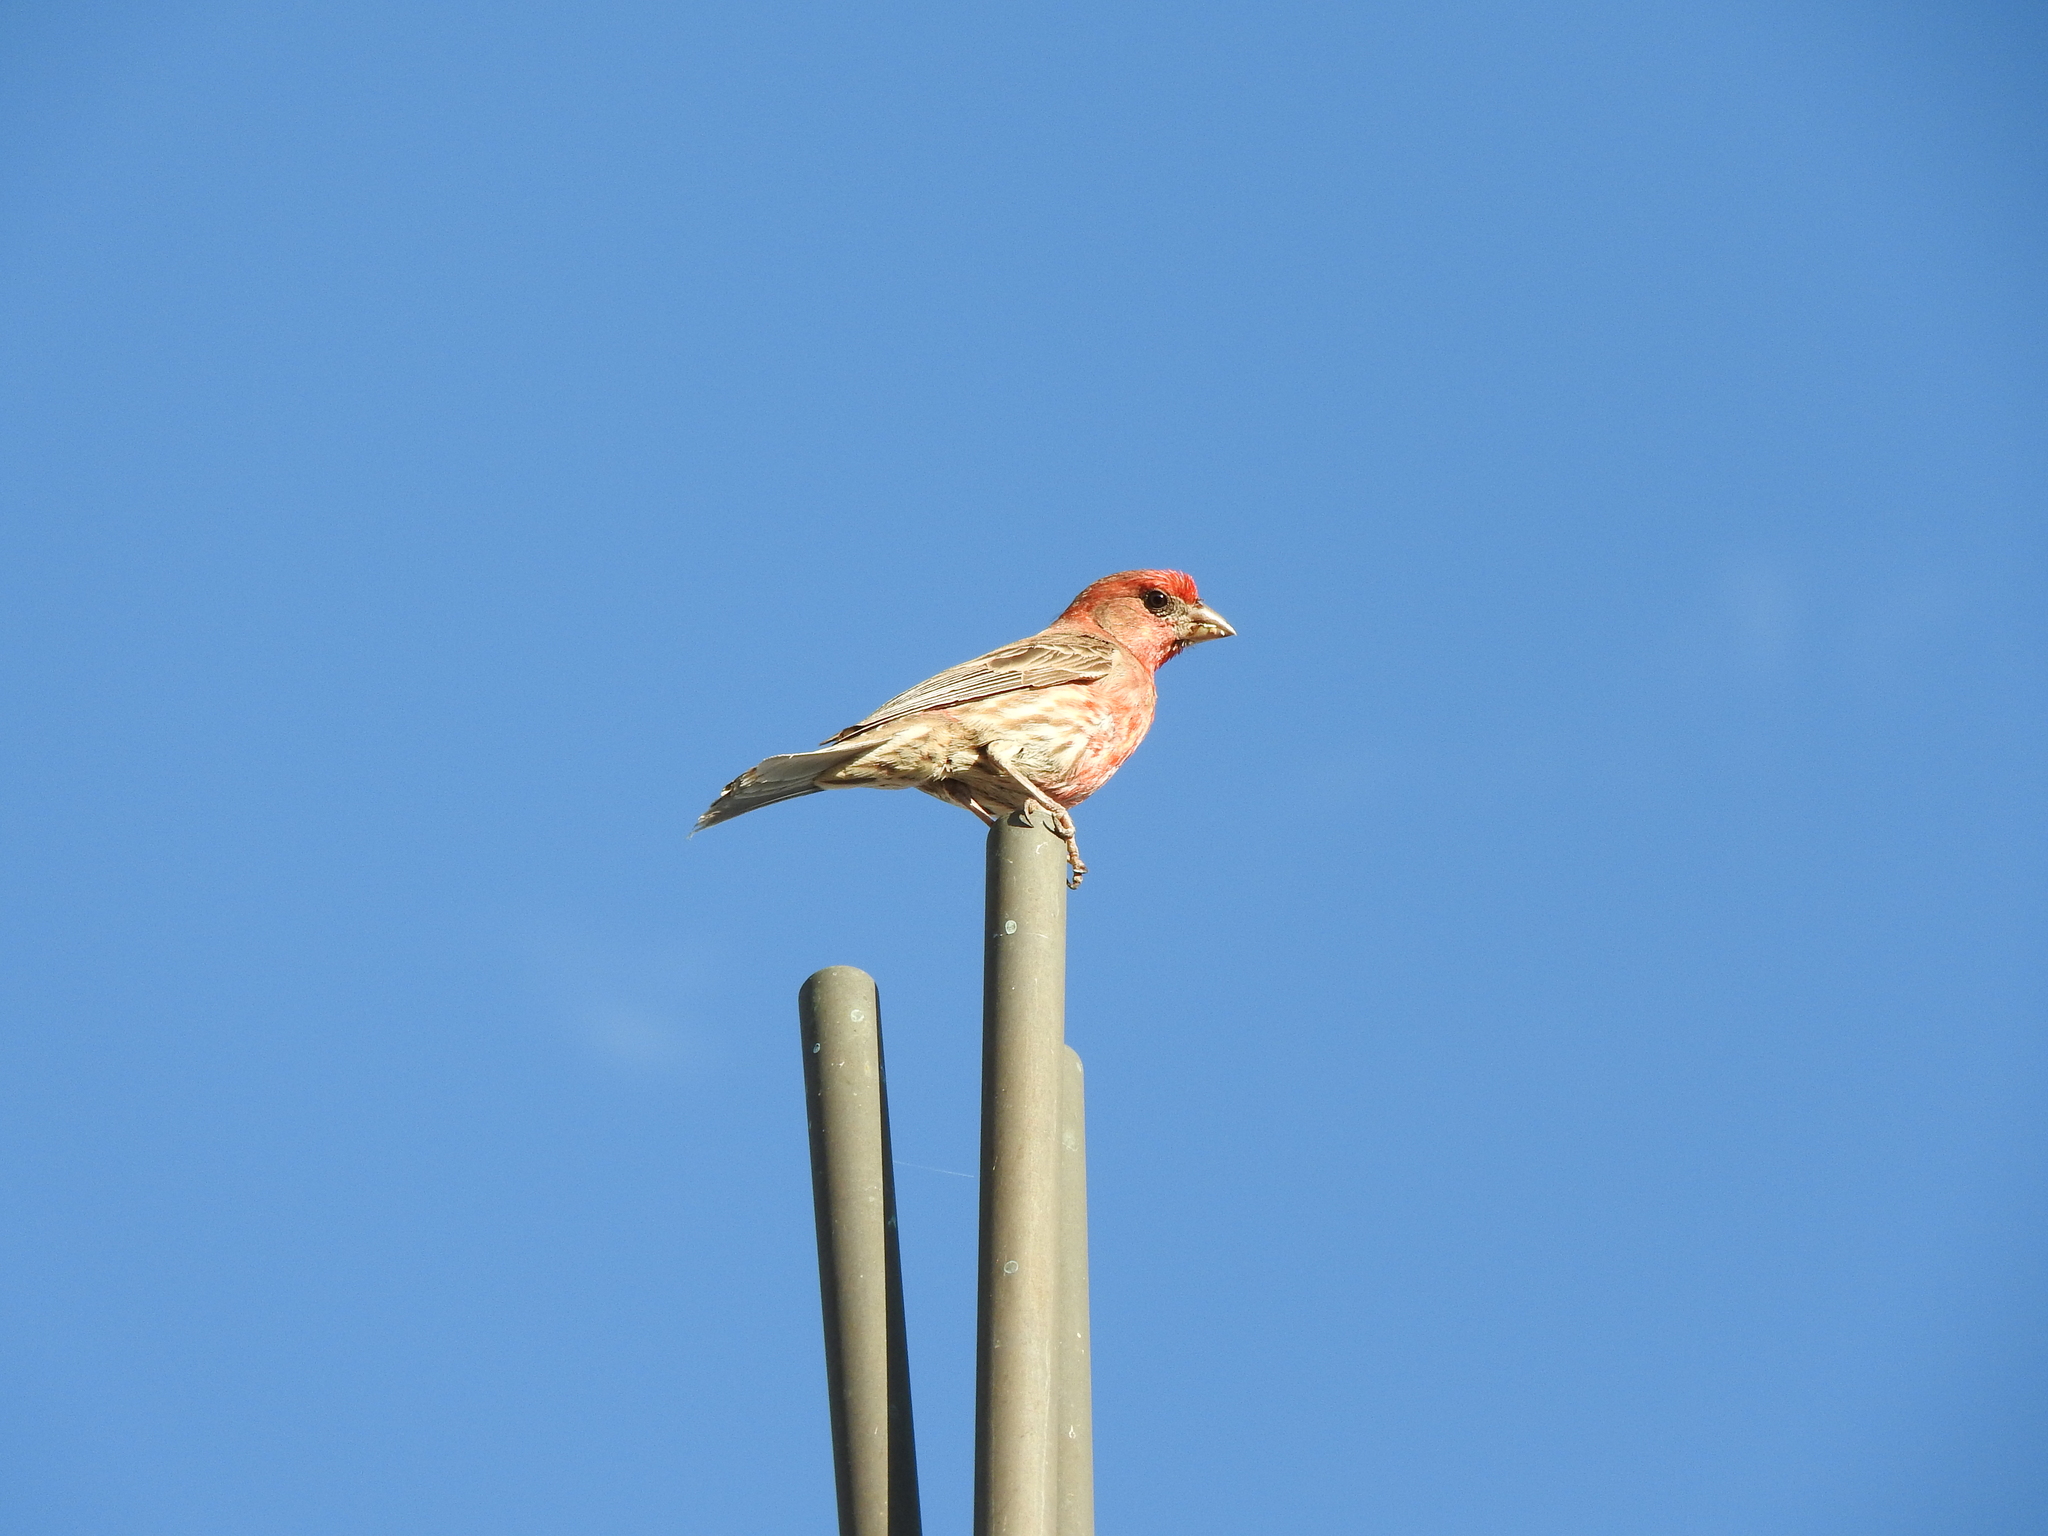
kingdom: Animalia
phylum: Chordata
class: Aves
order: Passeriformes
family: Fringillidae
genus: Haemorhous
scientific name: Haemorhous mexicanus
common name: House finch
